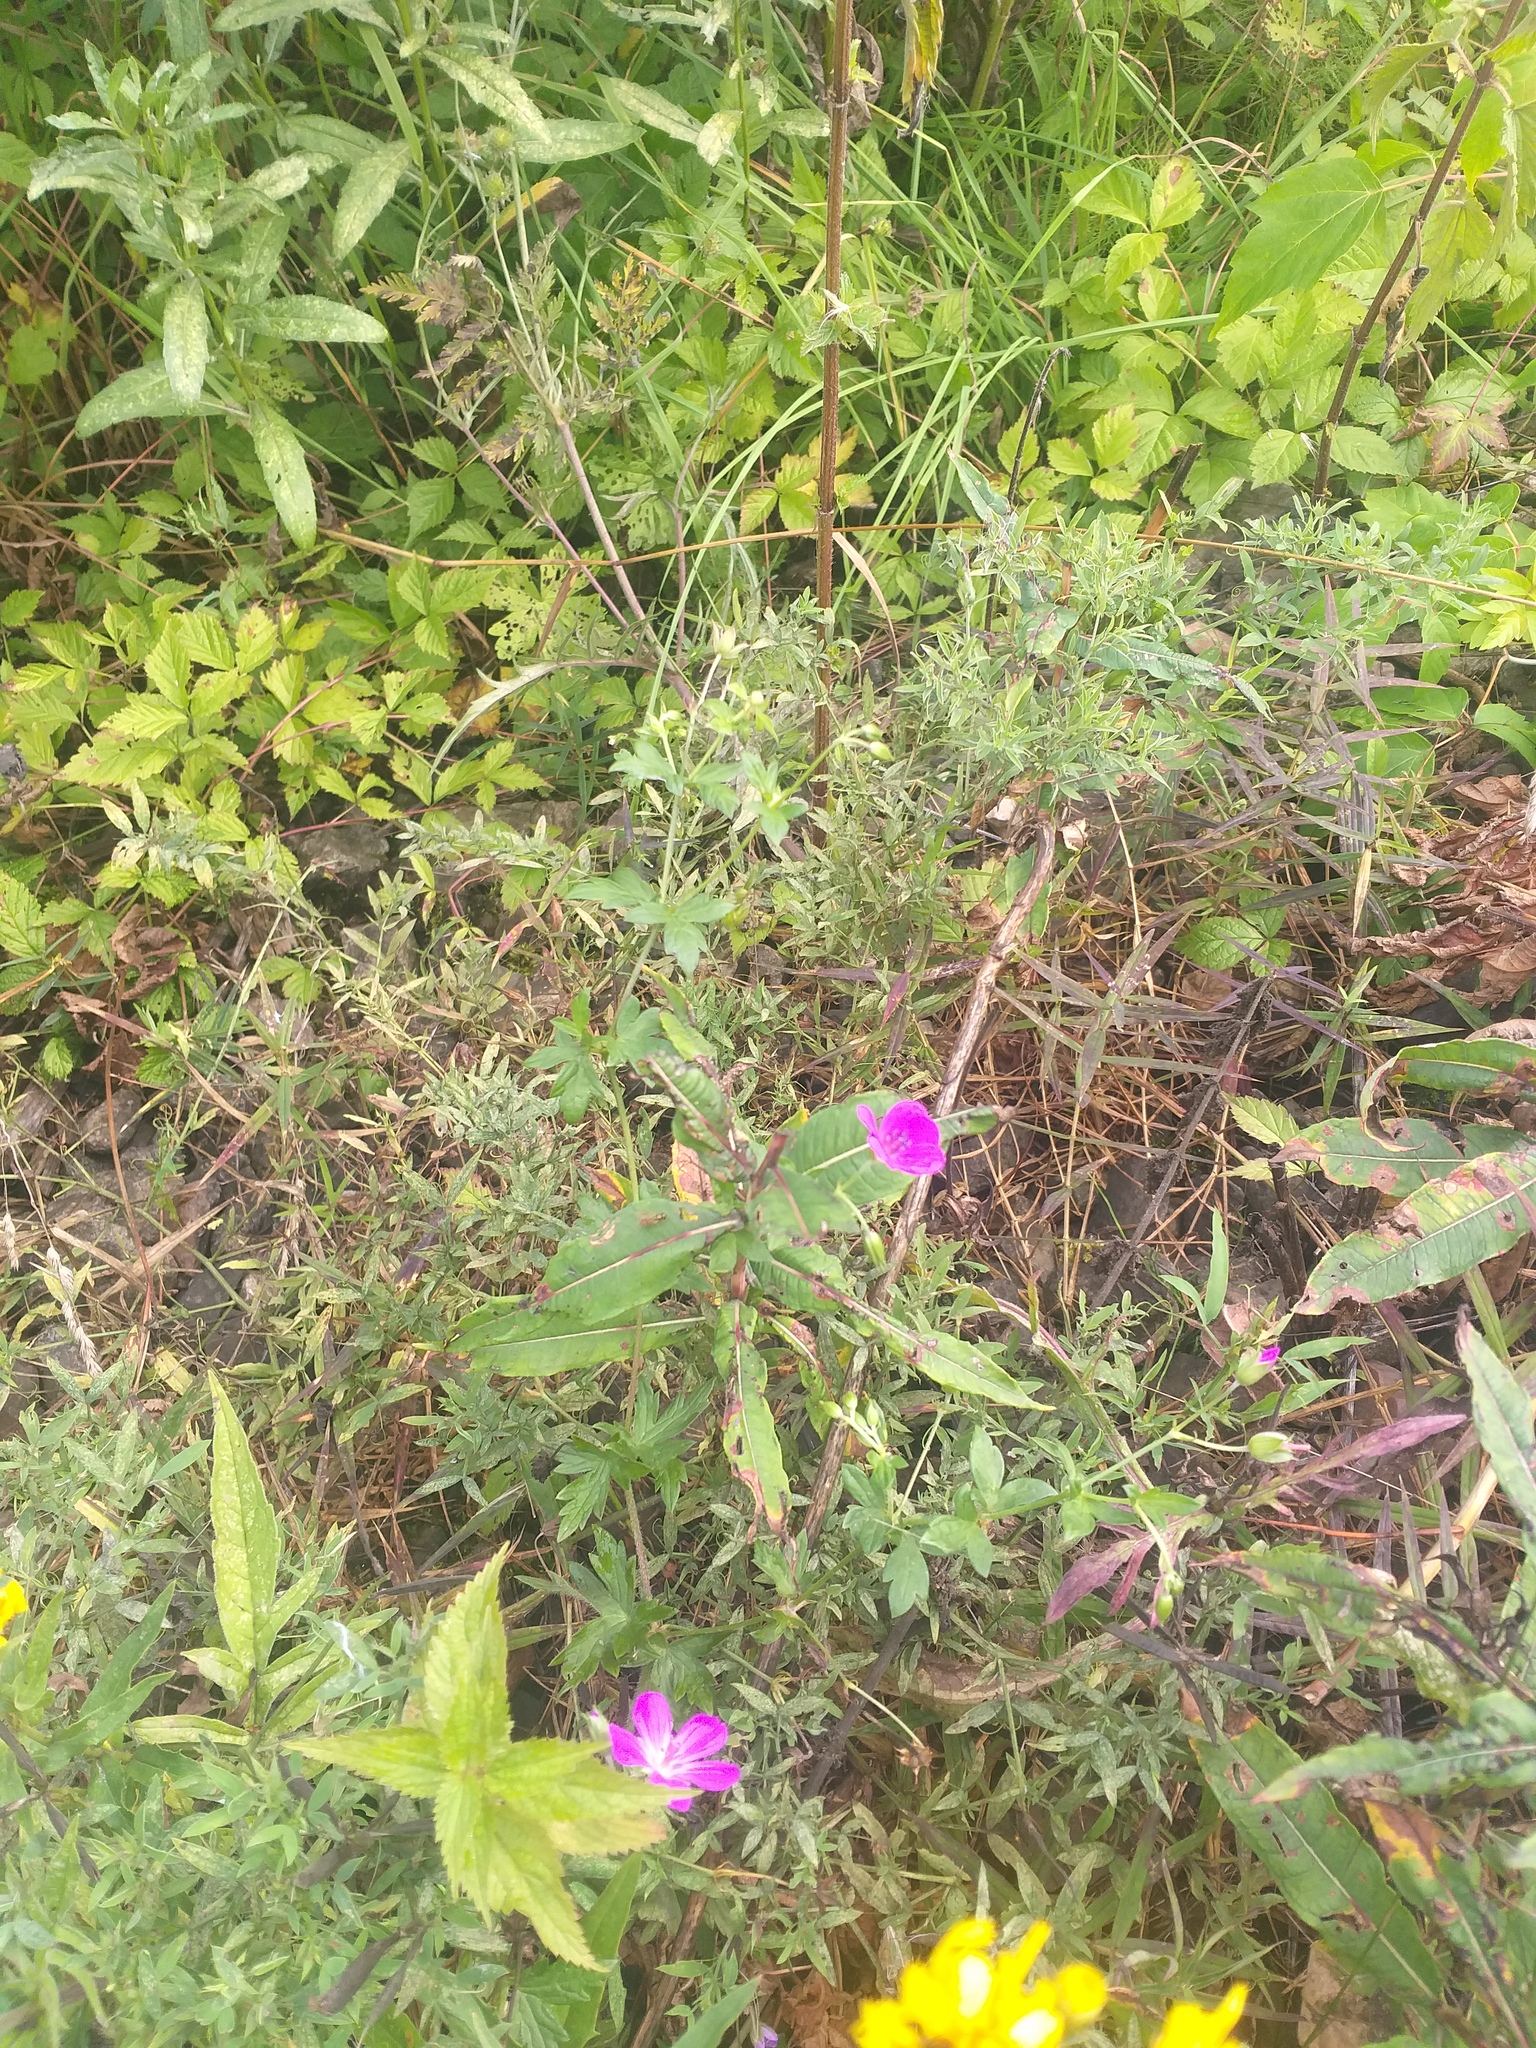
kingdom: Plantae
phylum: Tracheophyta
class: Magnoliopsida
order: Geraniales
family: Geraniaceae
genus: Geranium
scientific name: Geranium palustre
